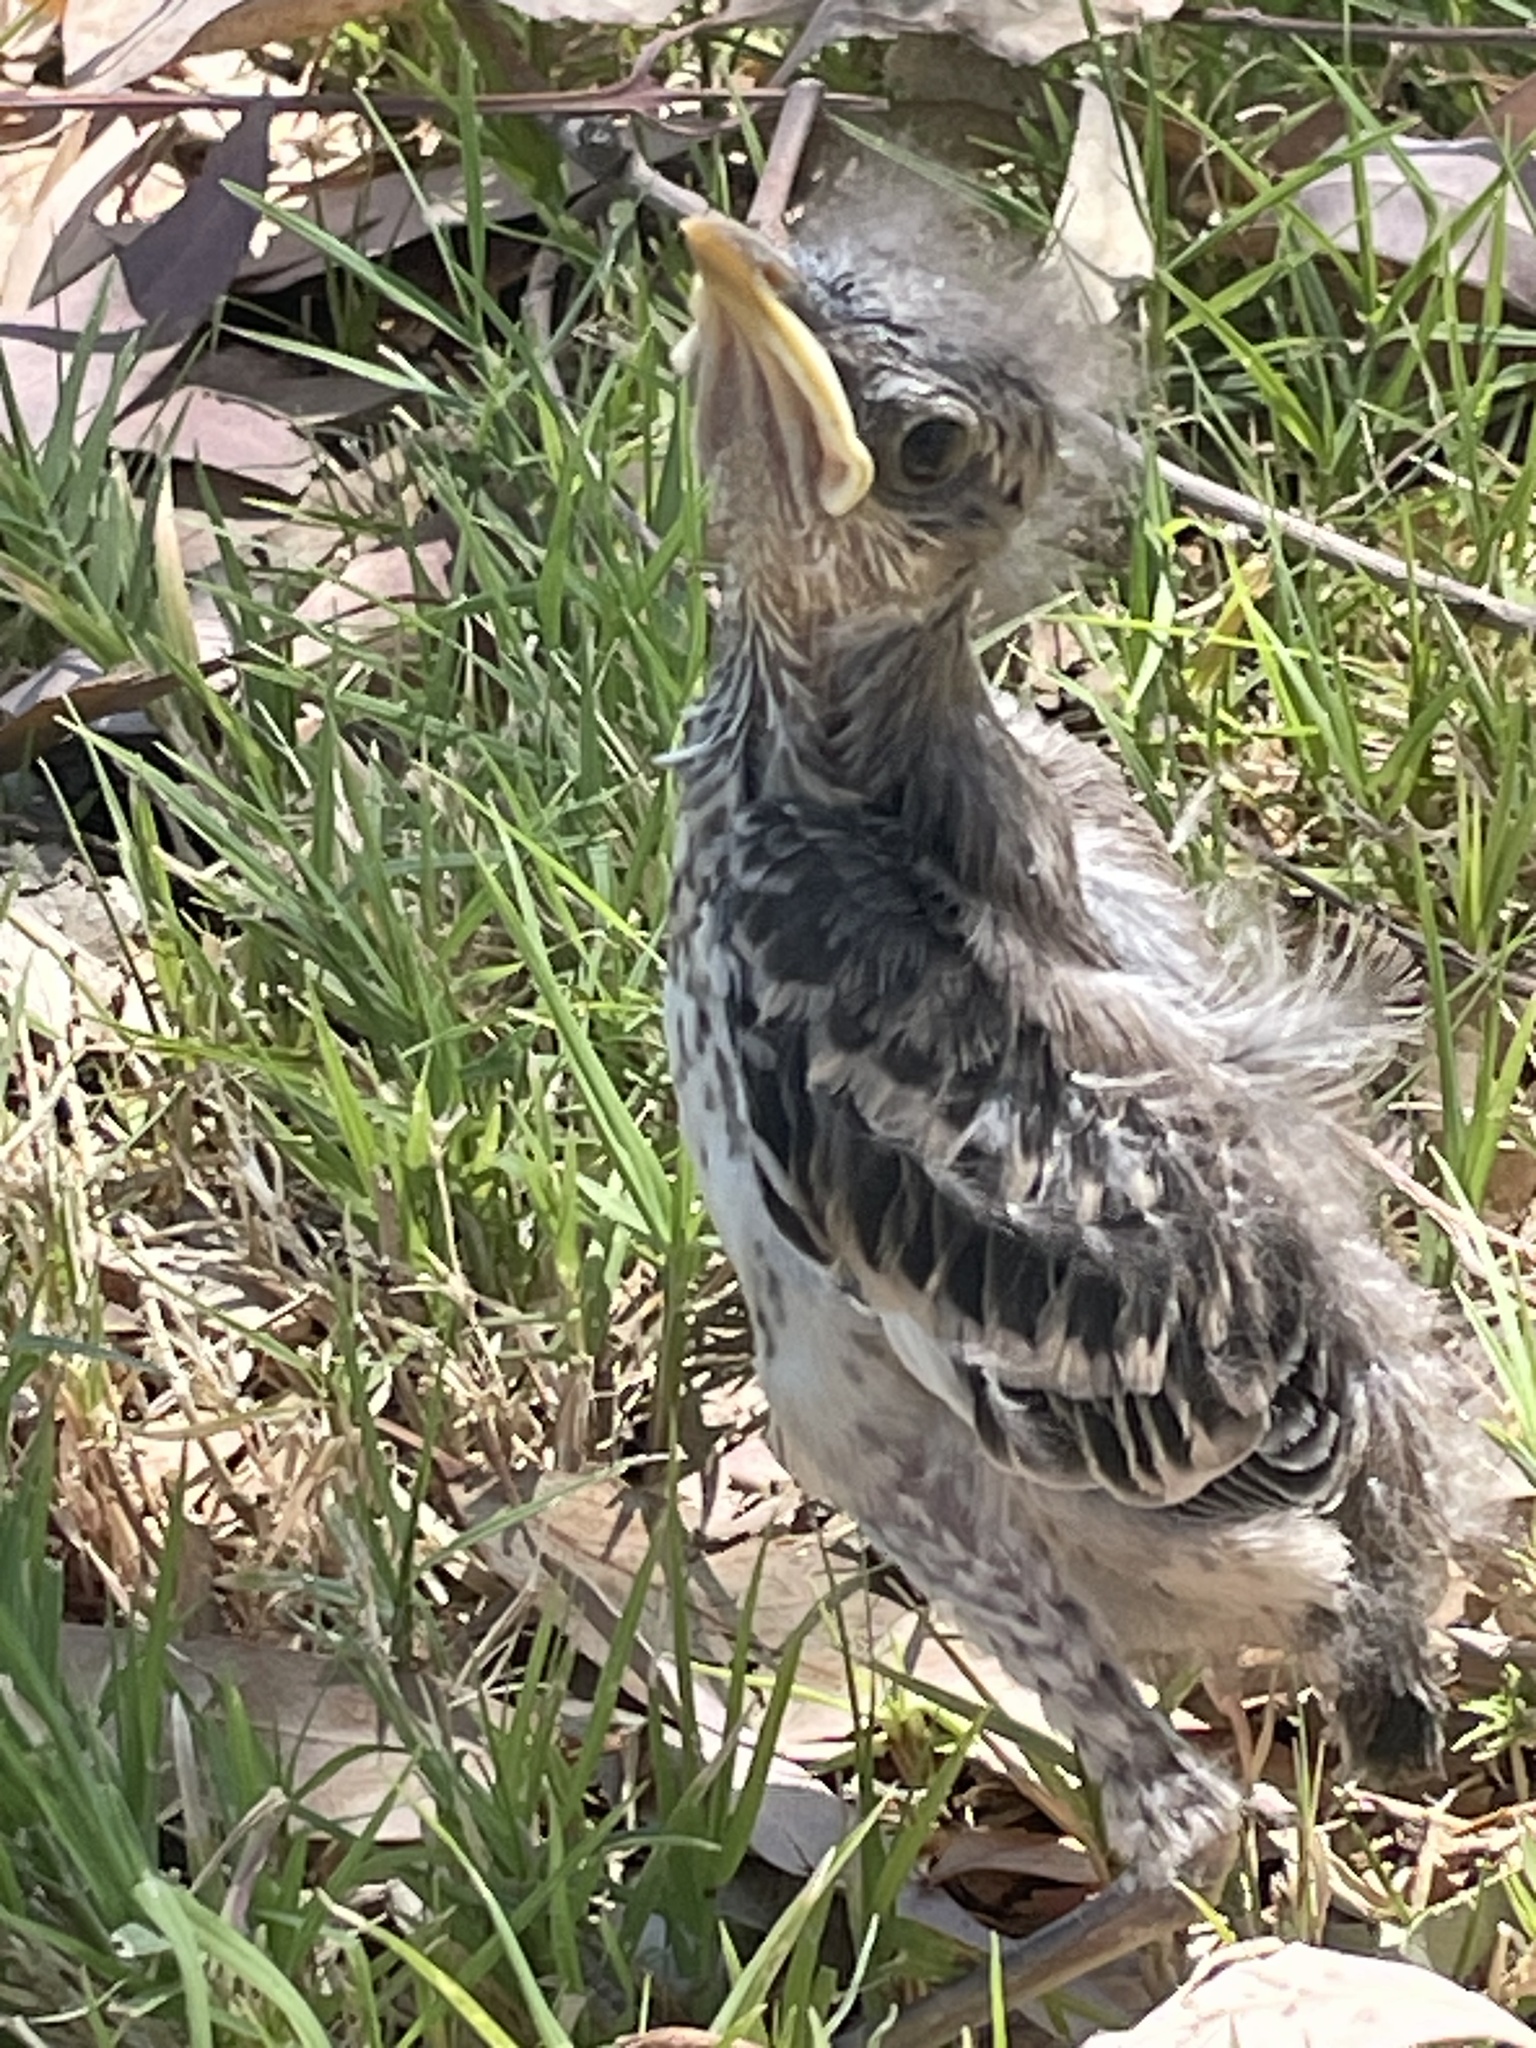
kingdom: Animalia
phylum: Chordata
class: Aves
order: Passeriformes
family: Mimidae
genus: Mimus
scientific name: Mimus polyglottos
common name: Northern mockingbird
